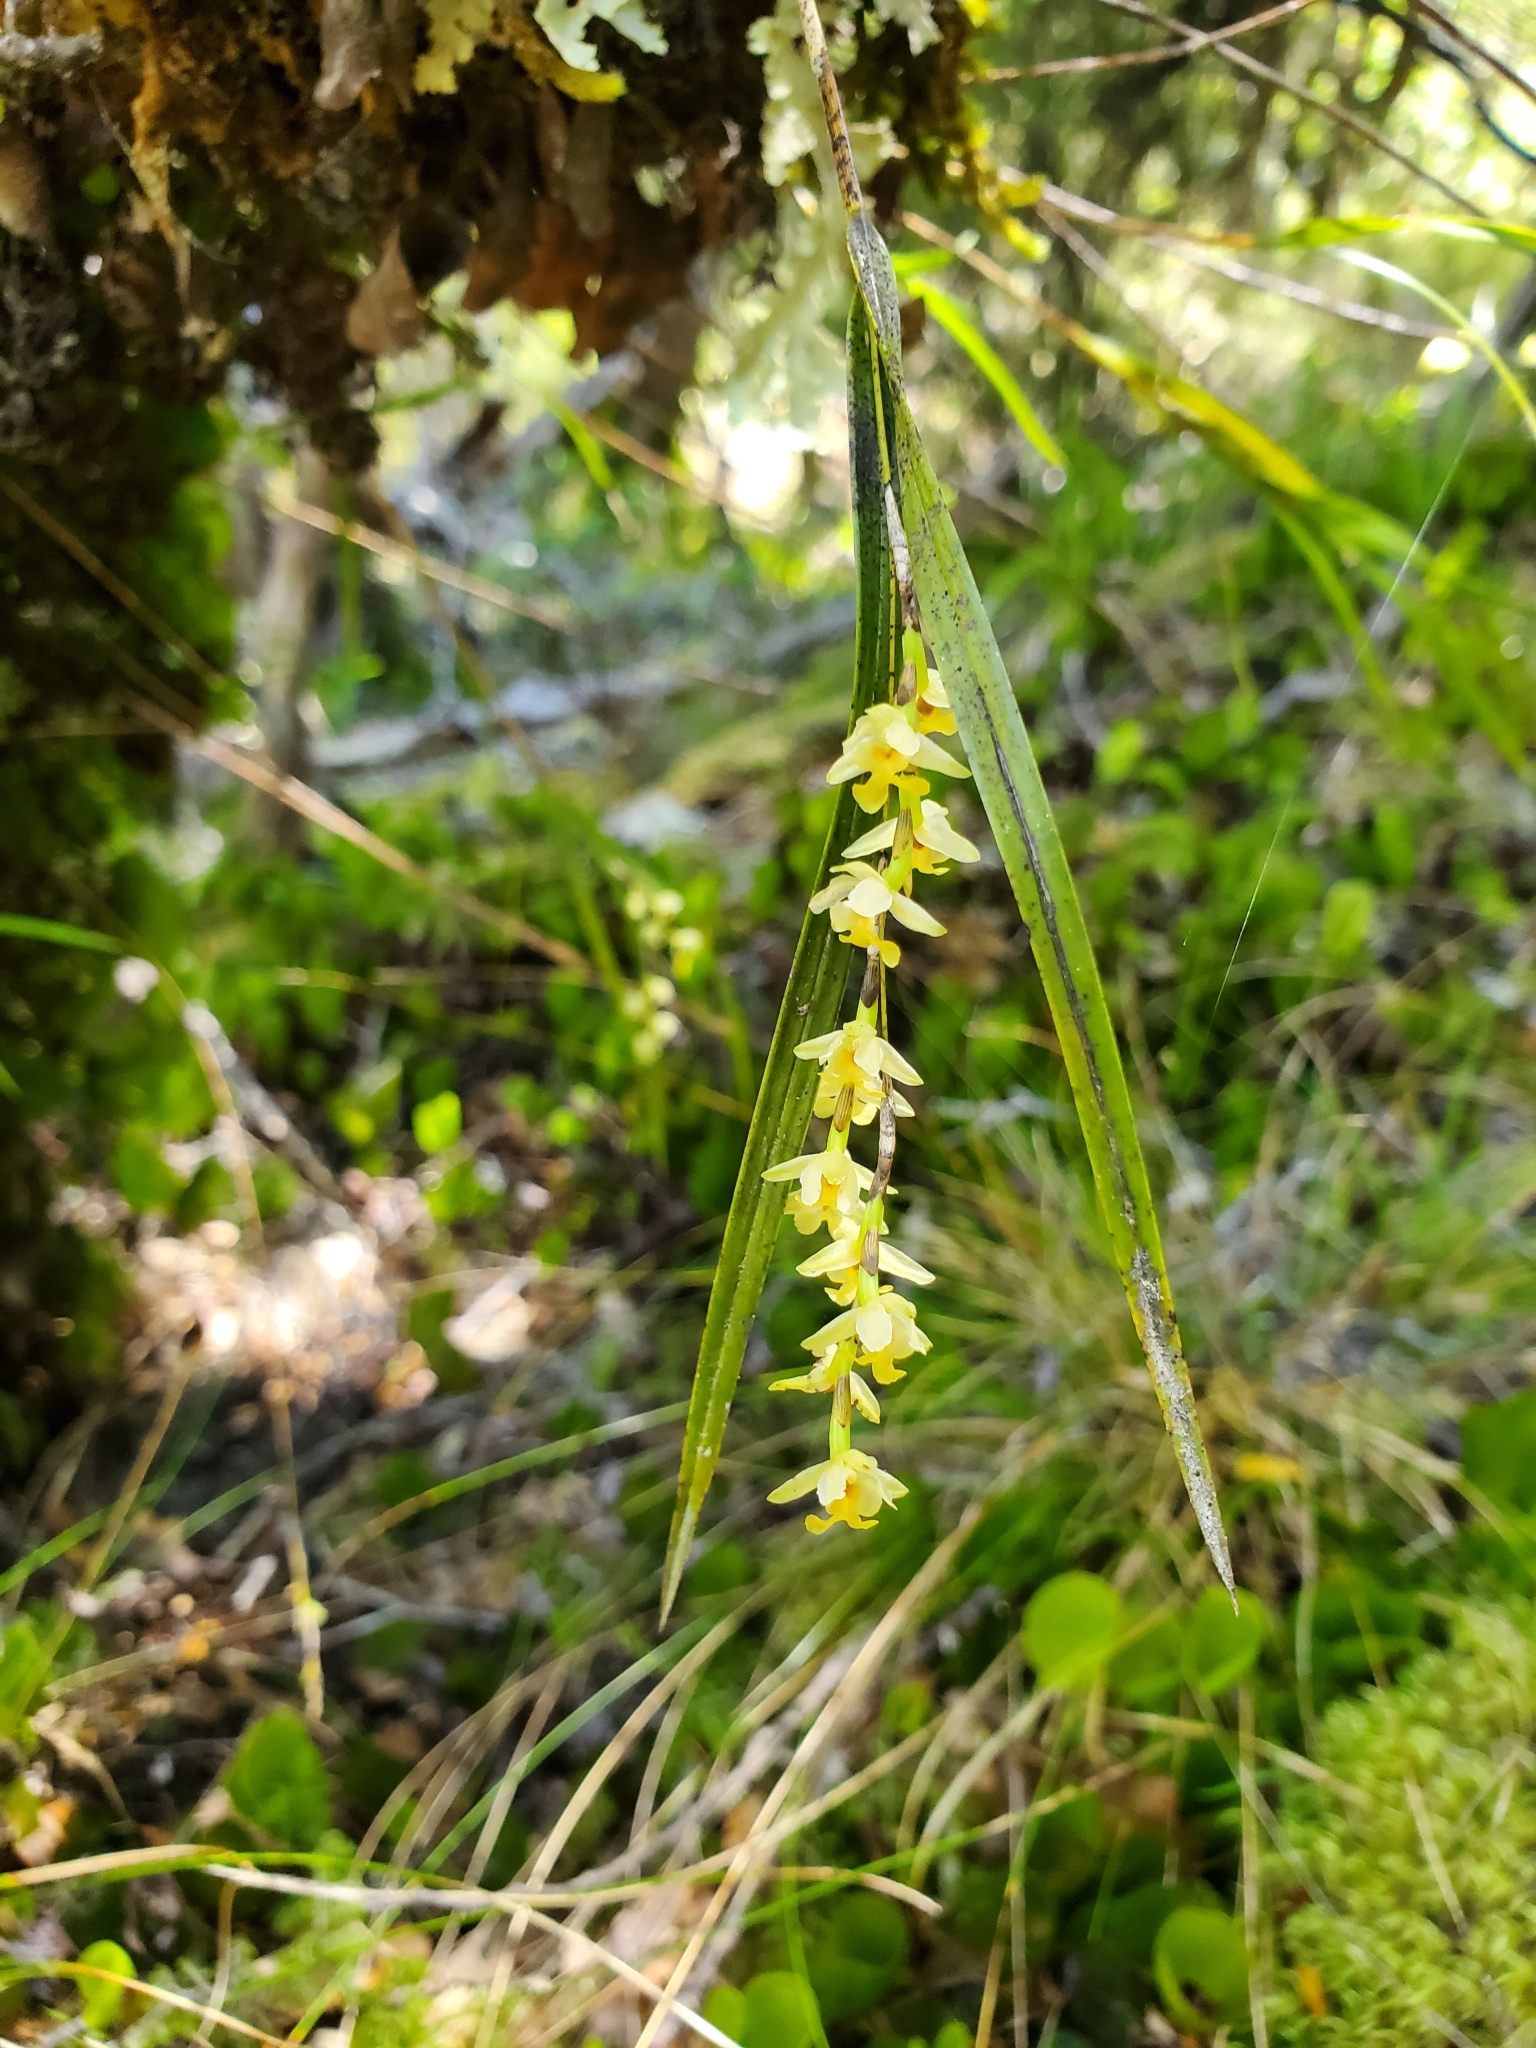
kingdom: Plantae
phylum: Tracheophyta
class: Liliopsida
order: Asparagales
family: Orchidaceae
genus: Earina
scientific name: Earina mucronata
